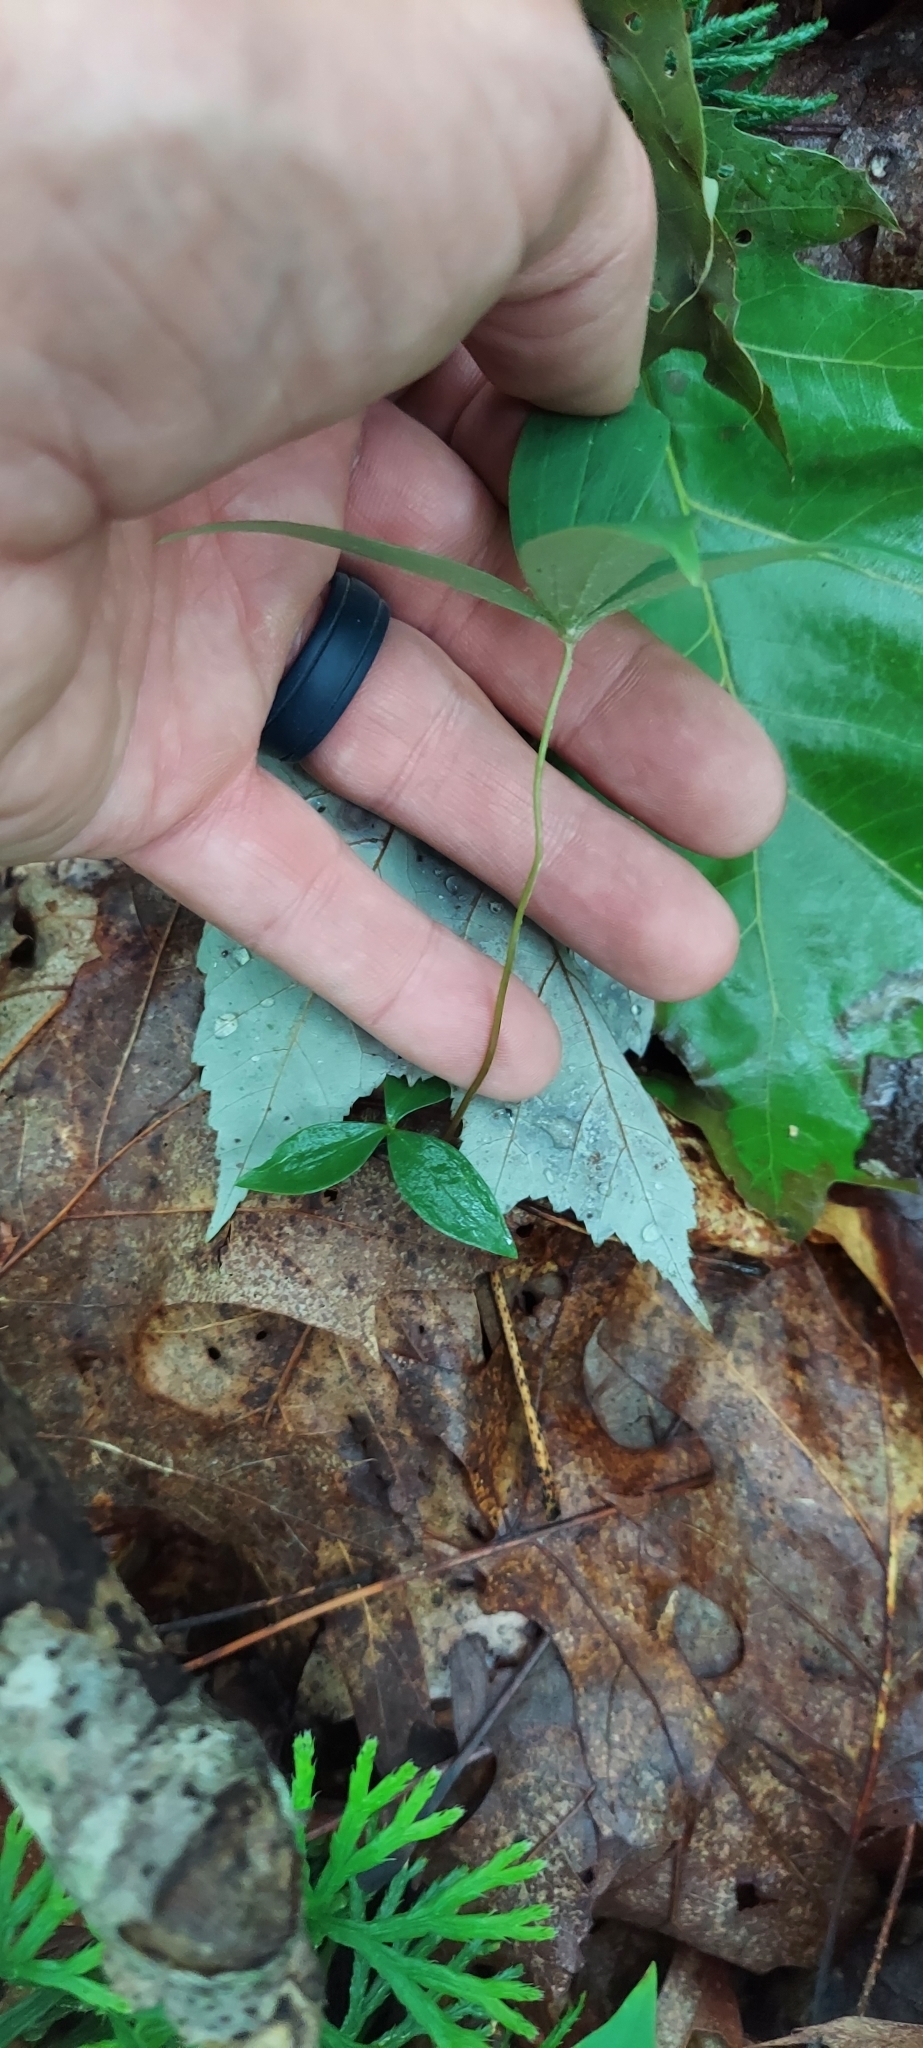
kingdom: Plantae
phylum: Tracheophyta
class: Liliopsida
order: Liliales
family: Liliaceae
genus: Medeola
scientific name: Medeola virginiana
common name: Indian cucumber-root
